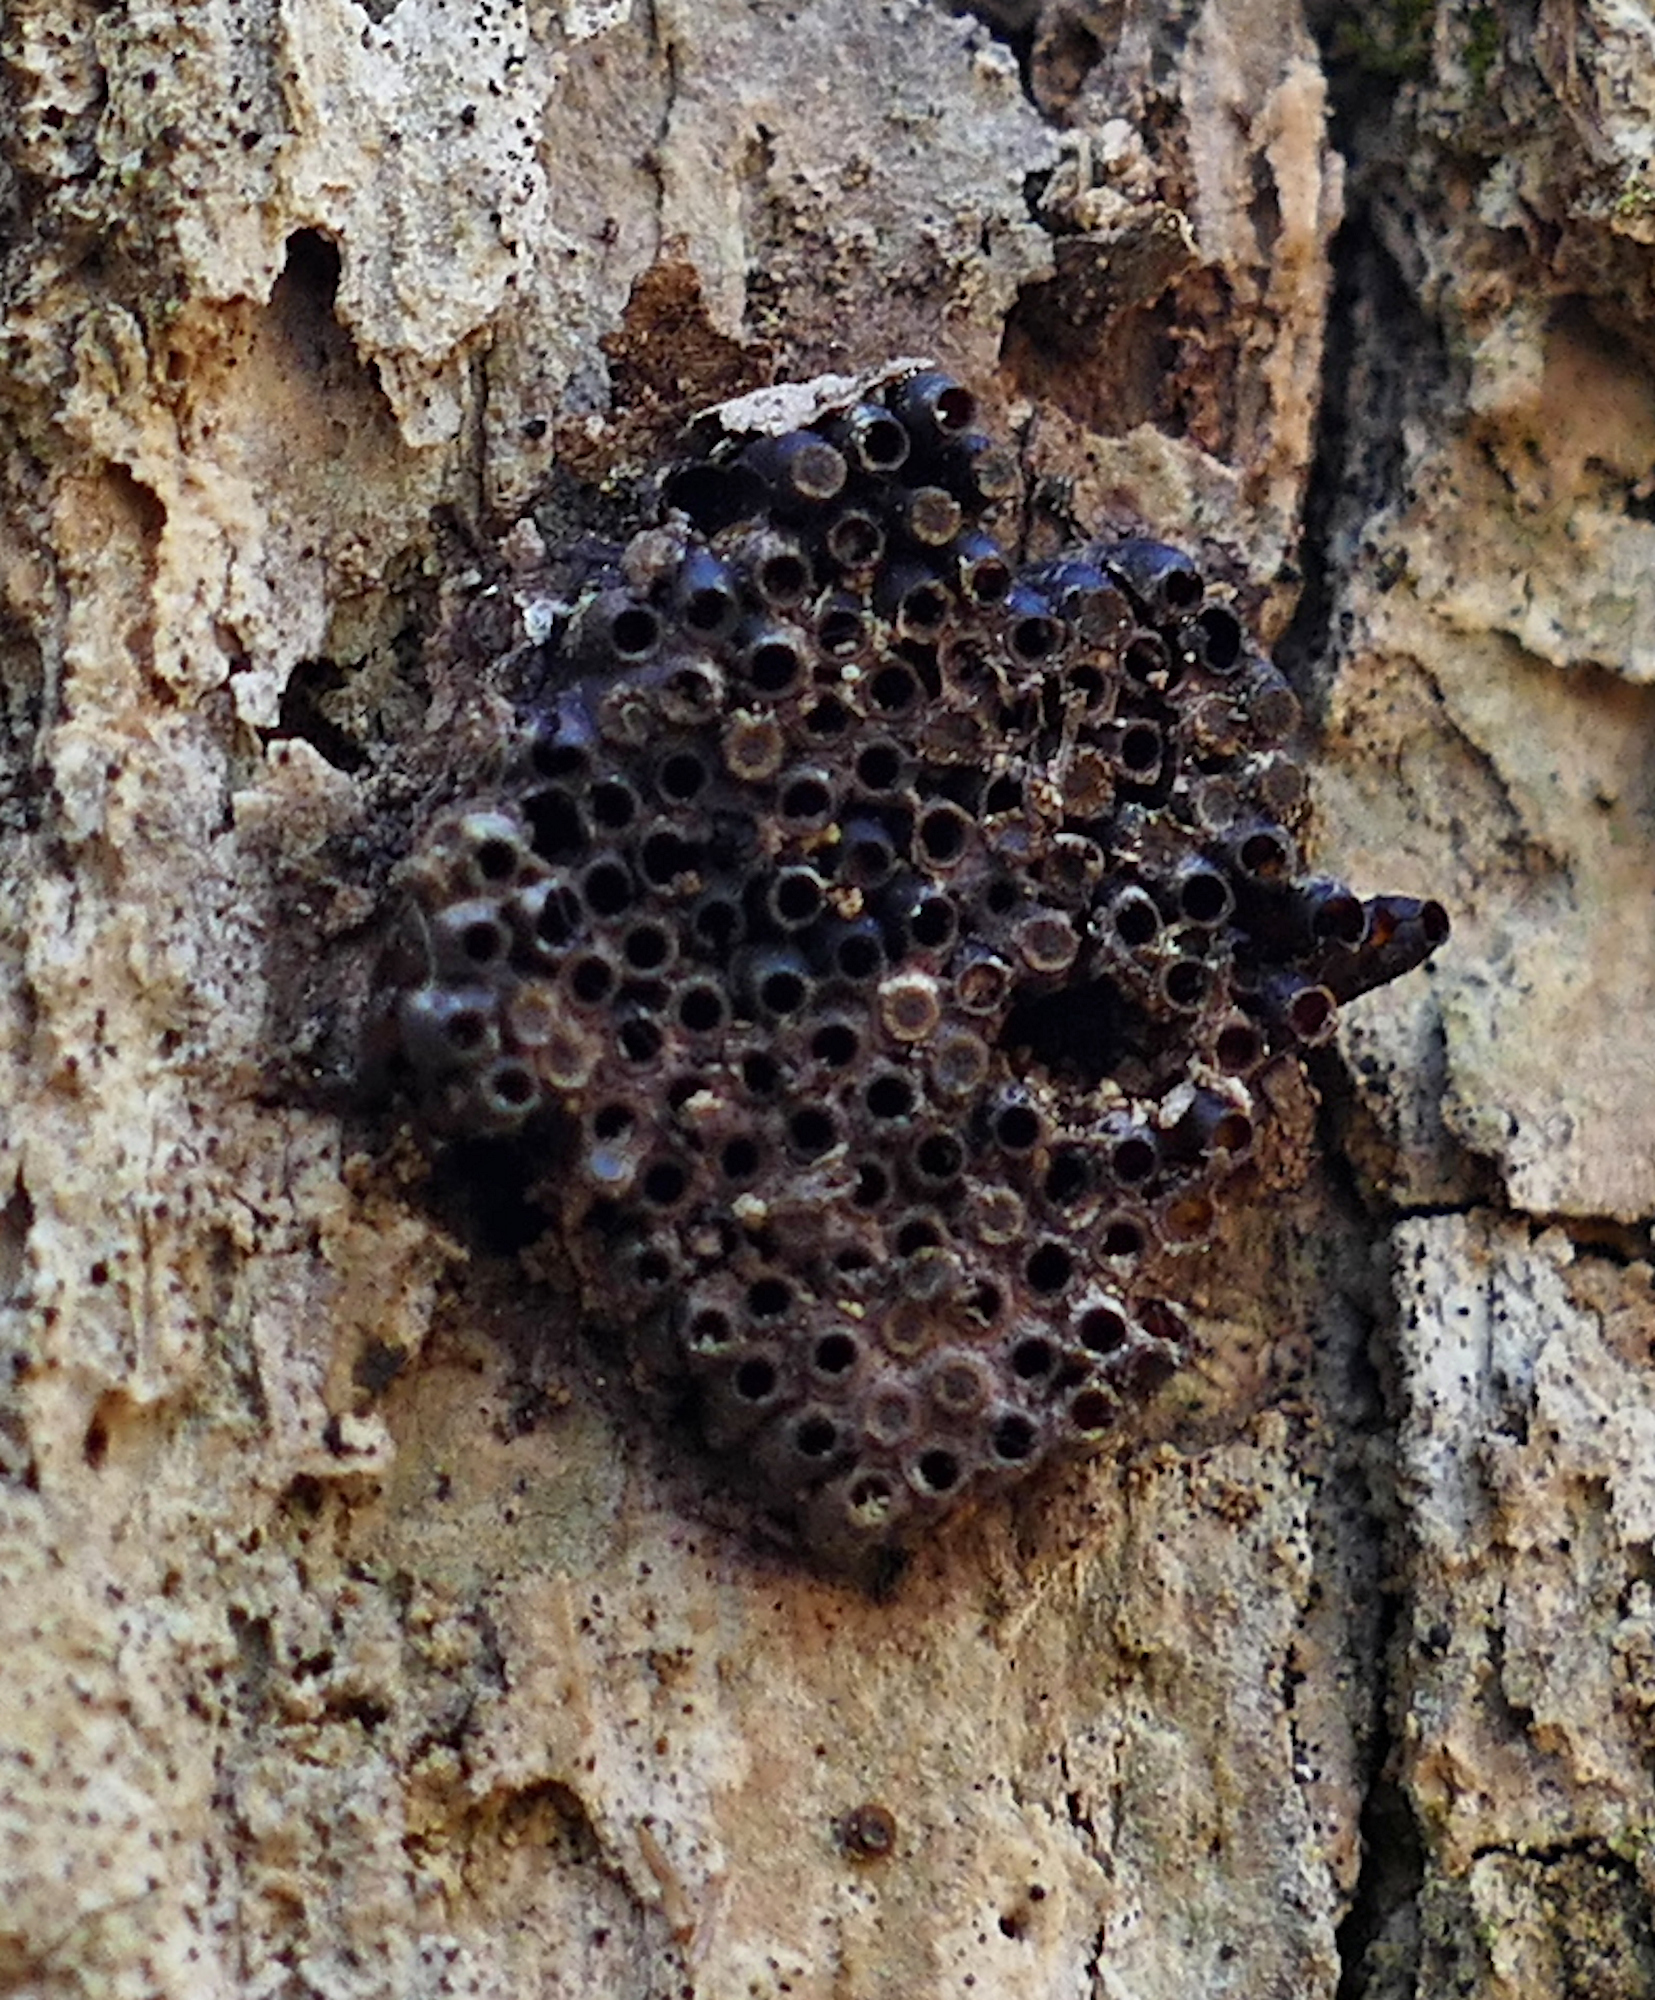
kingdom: Animalia
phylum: Arthropoda
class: Insecta
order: Hemiptera
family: Reduviidae
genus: Arilus
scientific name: Arilus cristatus
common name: North american wheel bug
